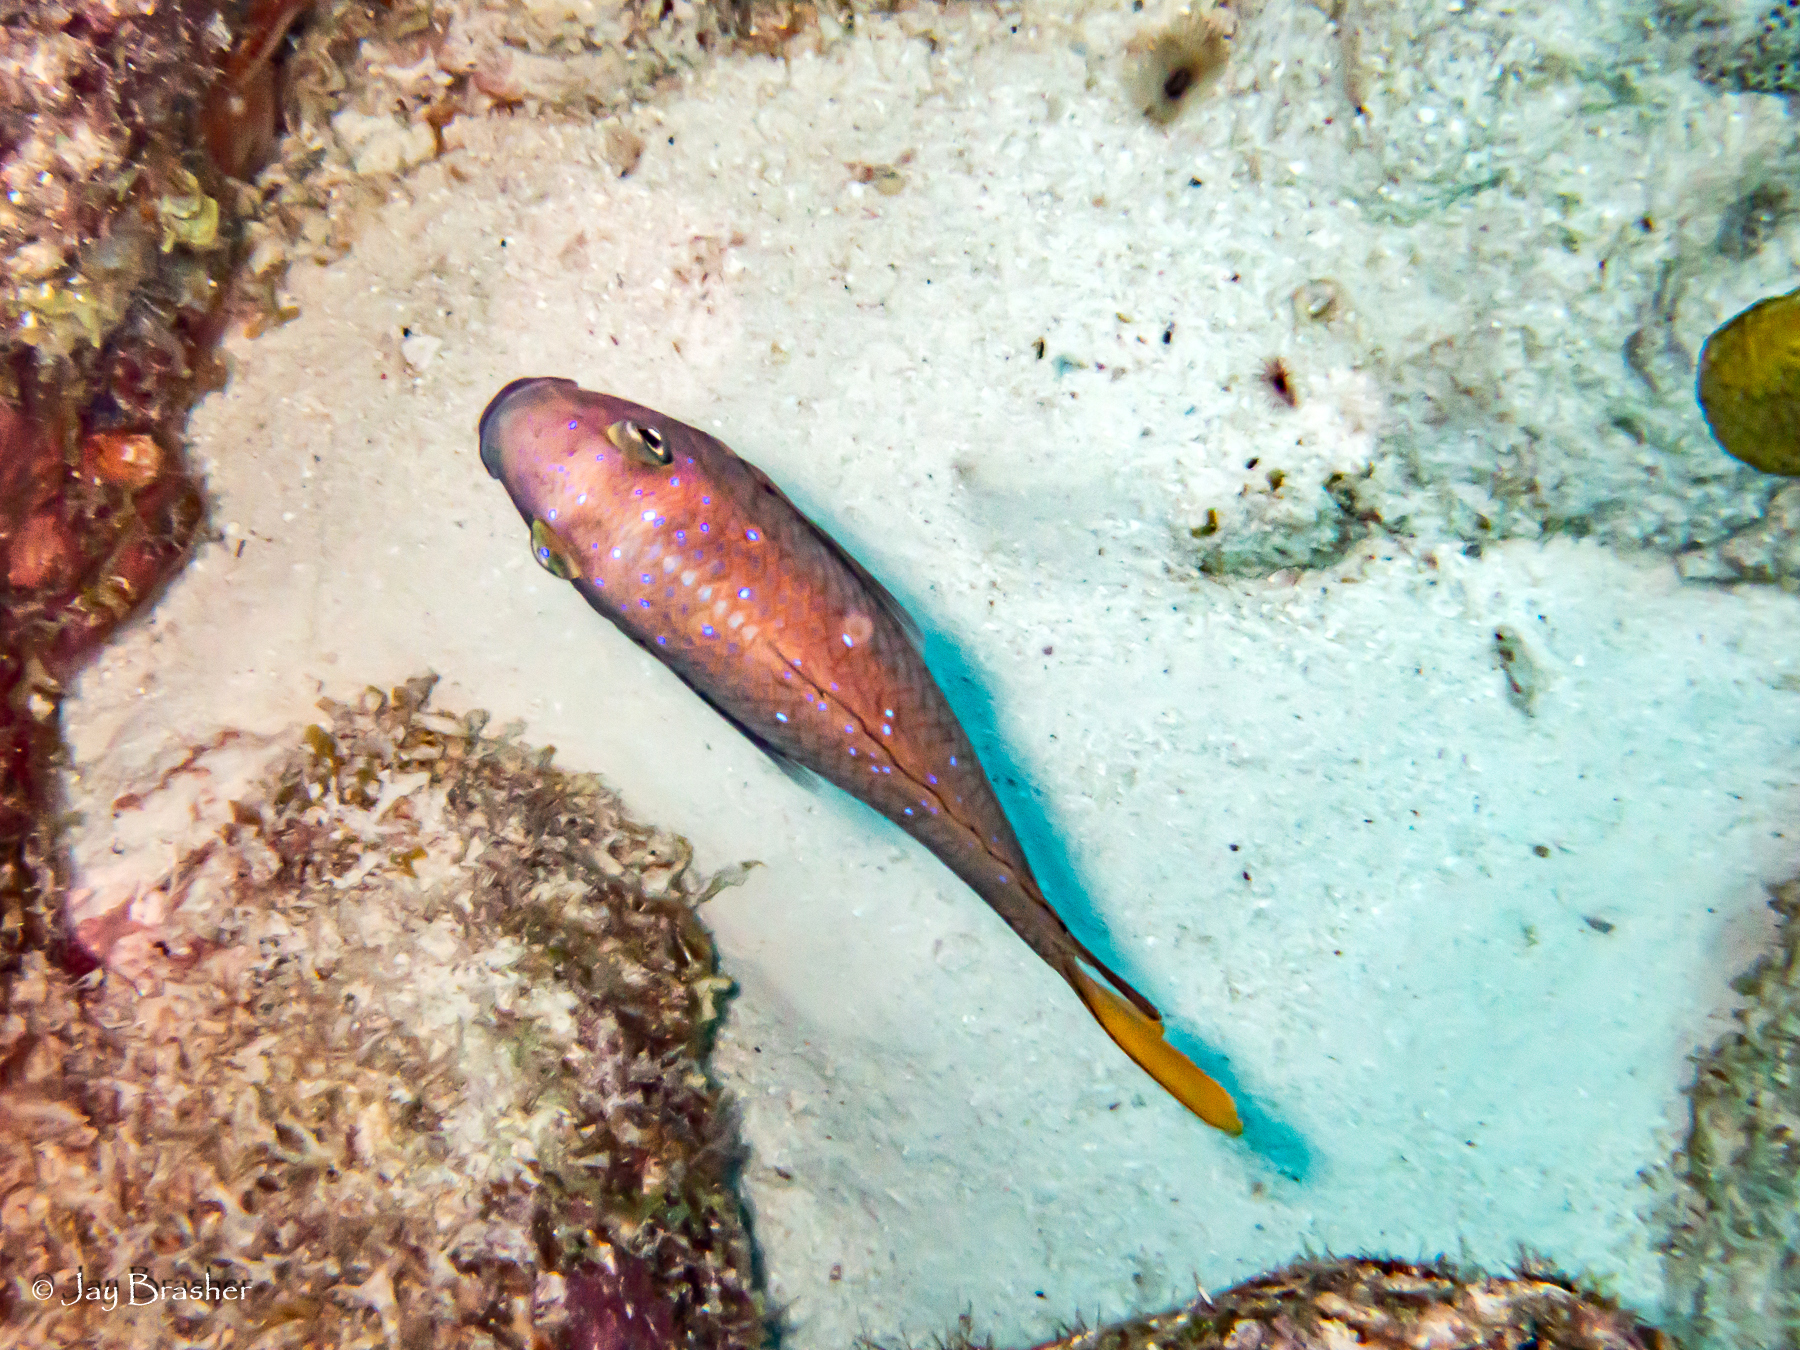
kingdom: Animalia
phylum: Chordata
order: Perciformes
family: Pomacentridae
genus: Microspathodon
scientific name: Microspathodon chrysurus
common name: Yellowtail damselfish
